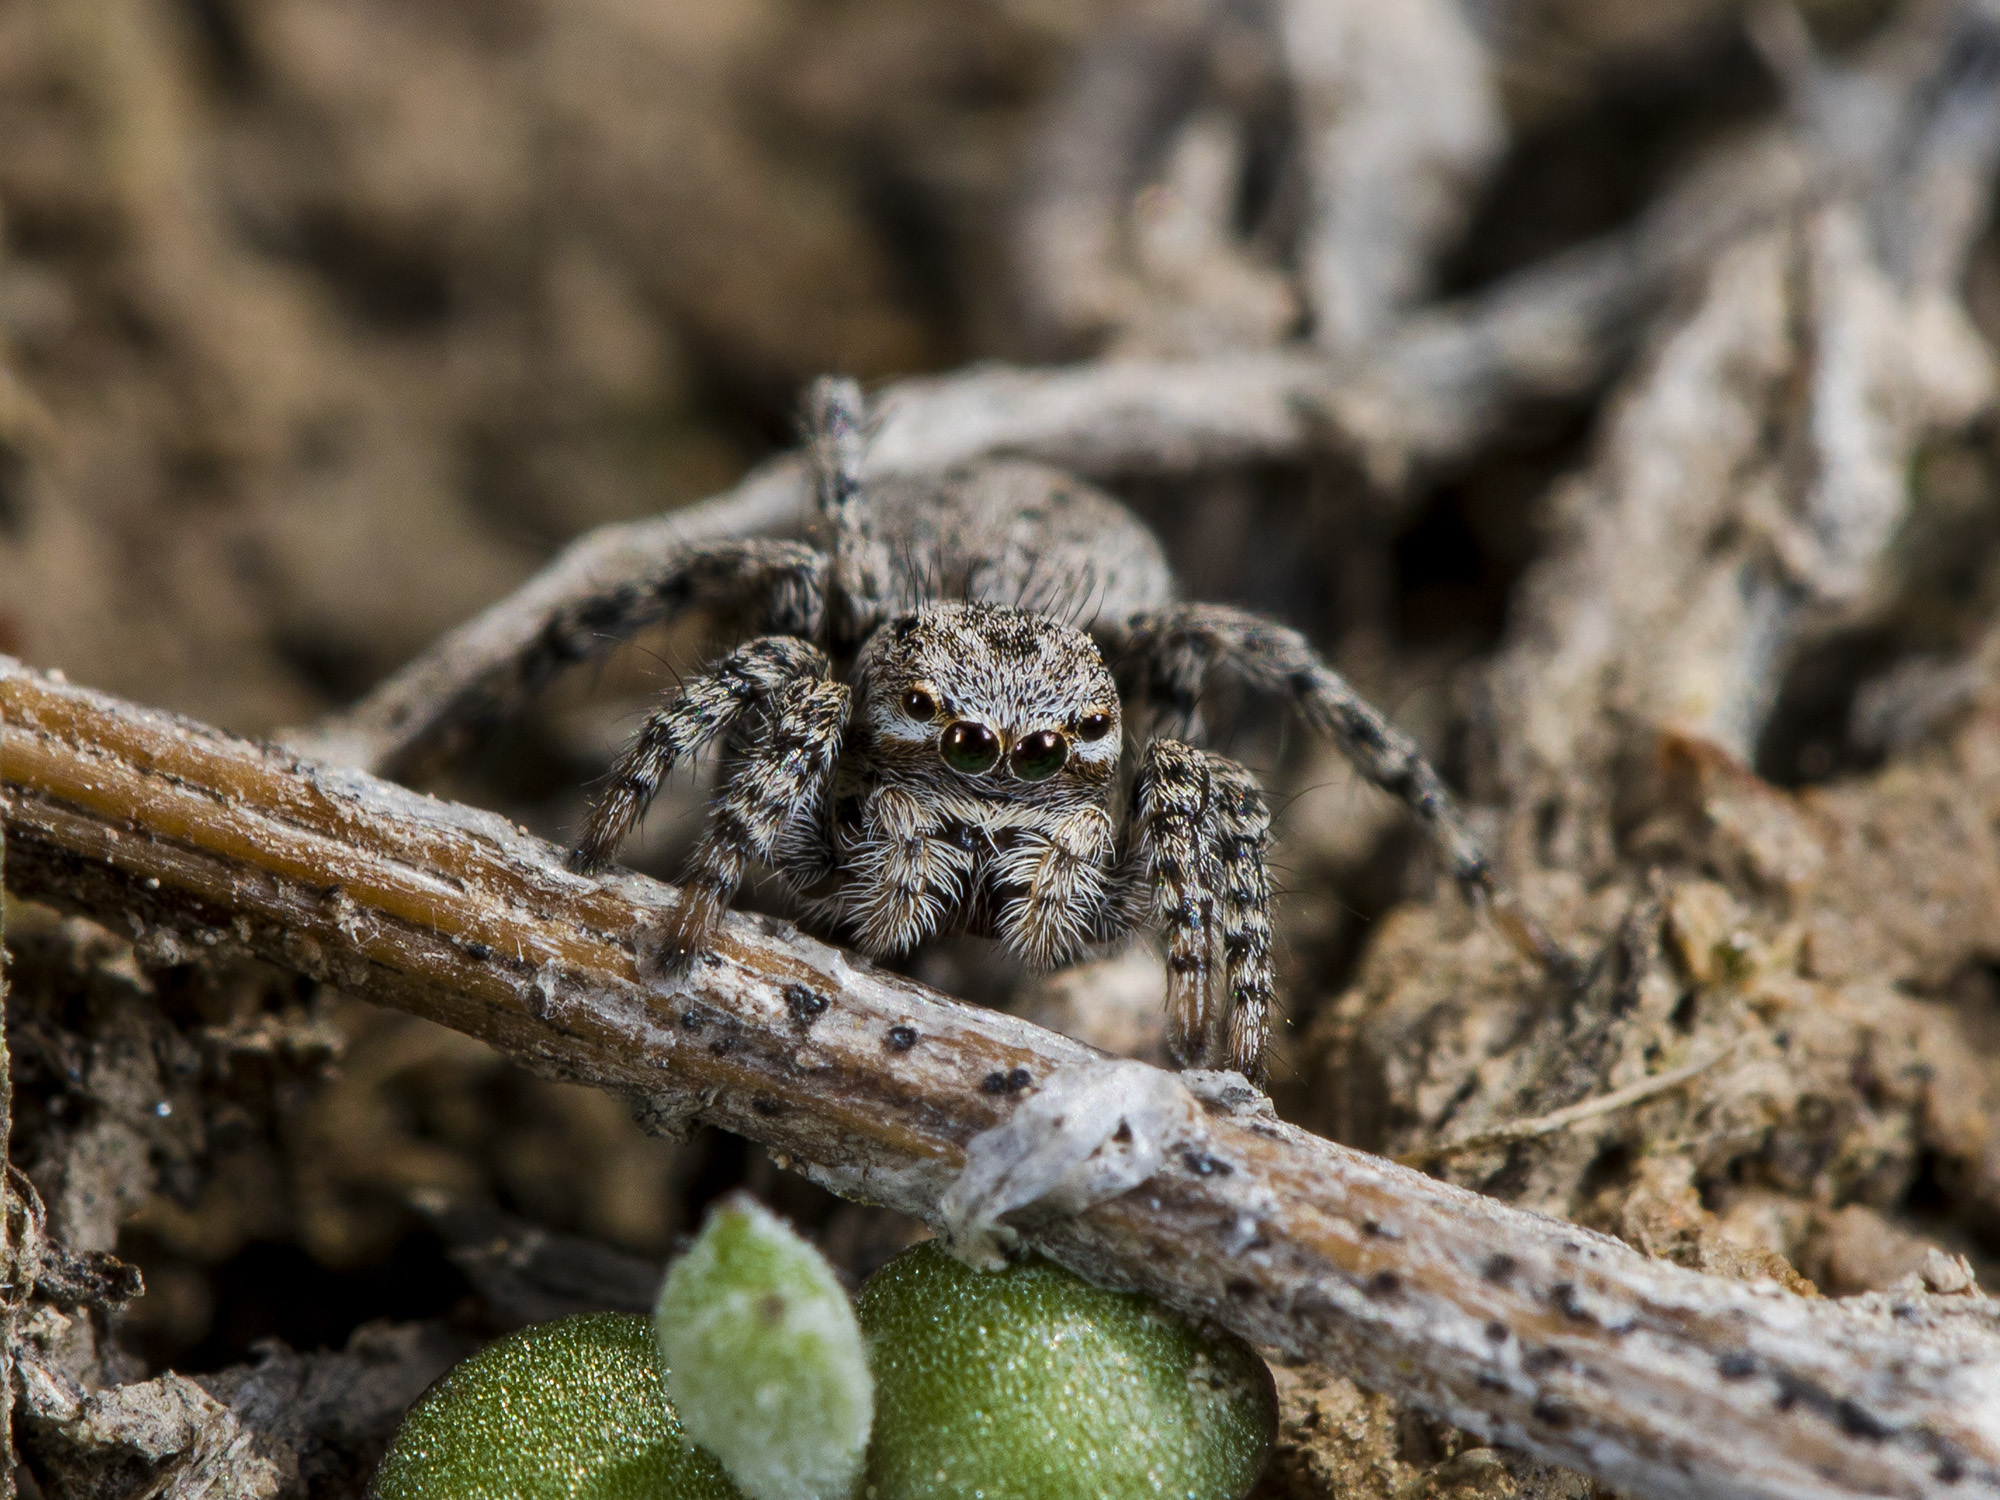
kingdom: Animalia
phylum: Arthropoda
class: Arachnida
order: Araneae
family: Salticidae
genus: Aelurillus
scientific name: Aelurillus v-insignitus
